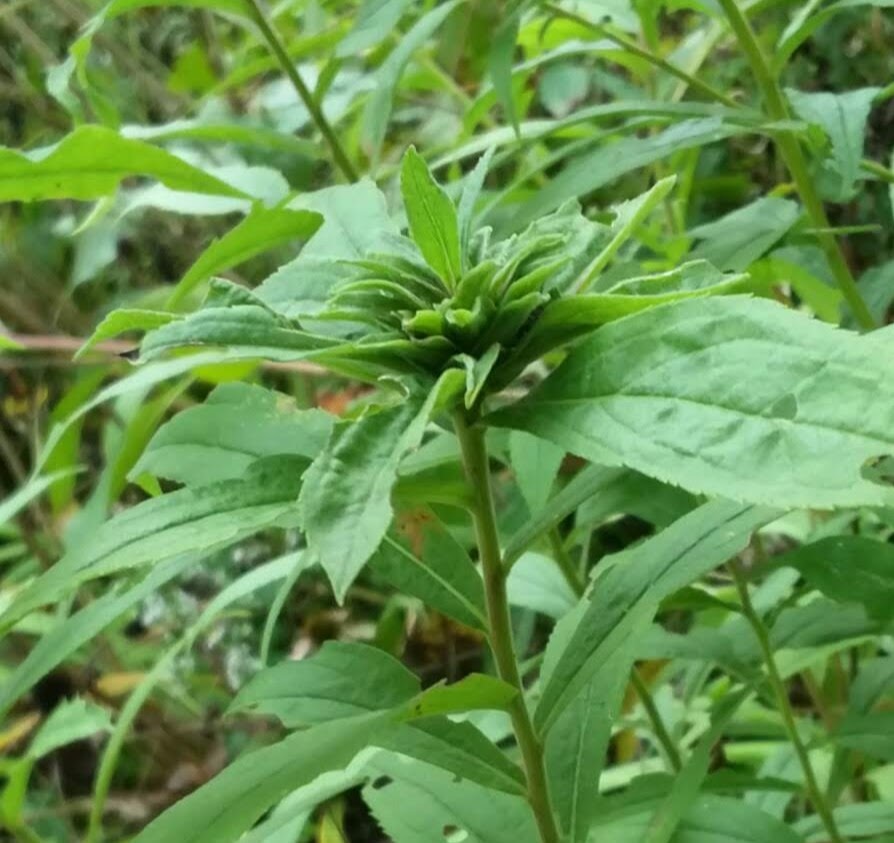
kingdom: Animalia
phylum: Arthropoda
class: Insecta
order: Diptera
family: Cecidomyiidae
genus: Rhopalomyia
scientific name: Rhopalomyia solidaginis
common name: Goldenrod bunch gall midge
